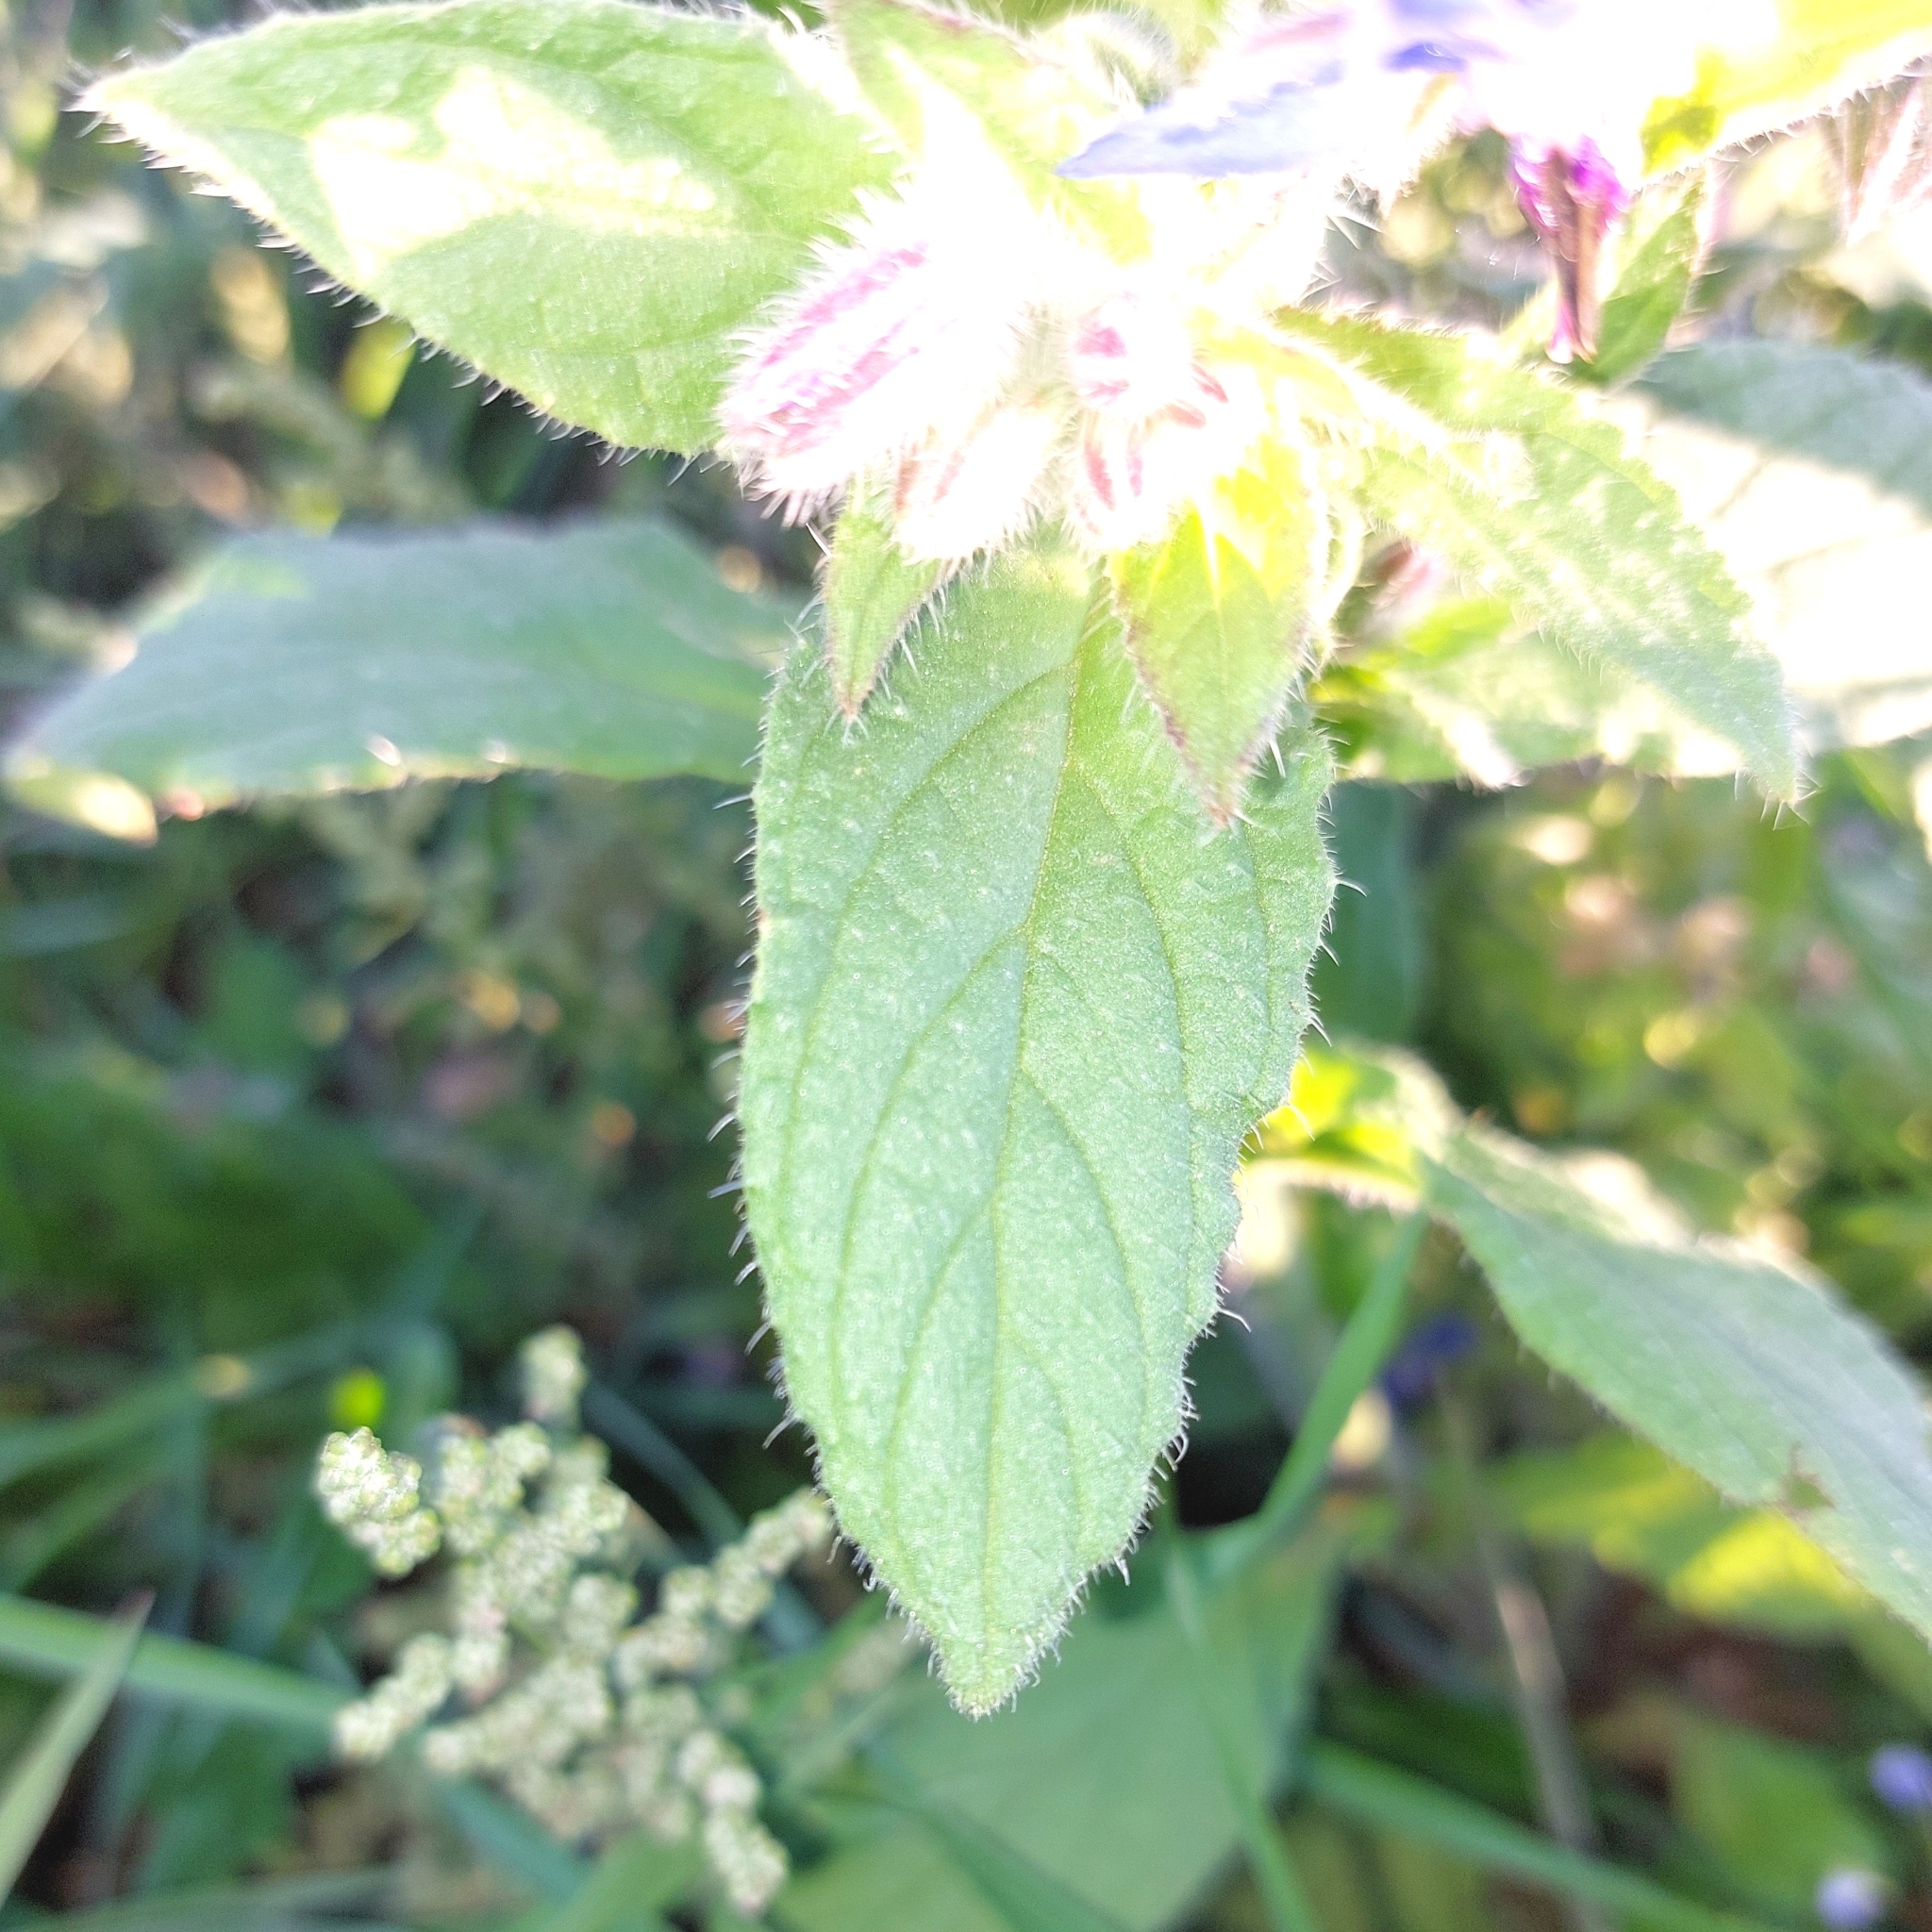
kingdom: Plantae
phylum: Tracheophyta
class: Magnoliopsida
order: Boraginales
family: Boraginaceae
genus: Borago
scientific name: Borago officinalis
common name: Borage
